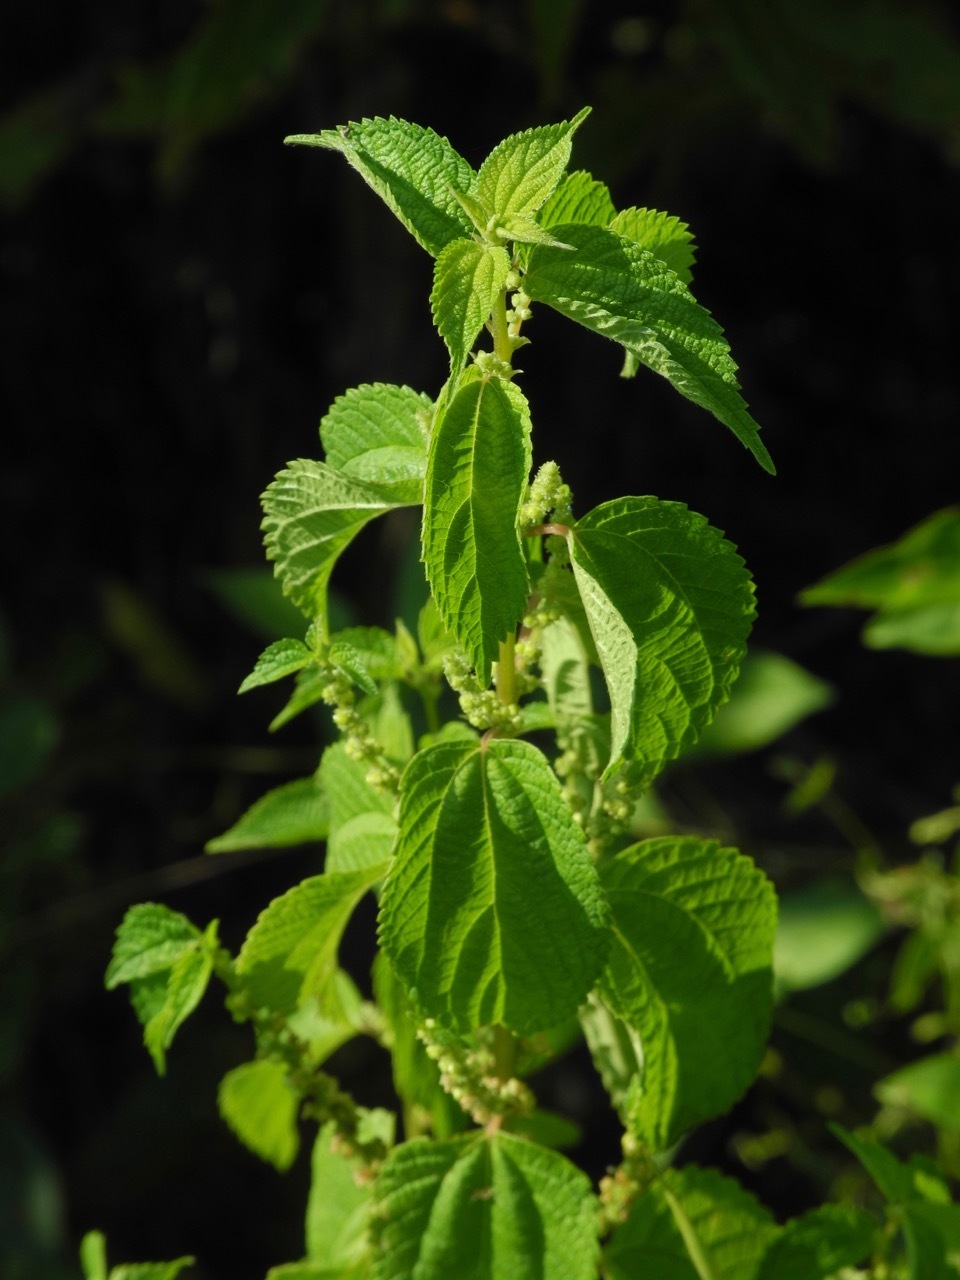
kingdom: Plantae
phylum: Tracheophyta
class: Magnoliopsida
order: Rosales
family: Urticaceae
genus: Boehmeria
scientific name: Boehmeria cylindrica
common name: Bog-hemp
